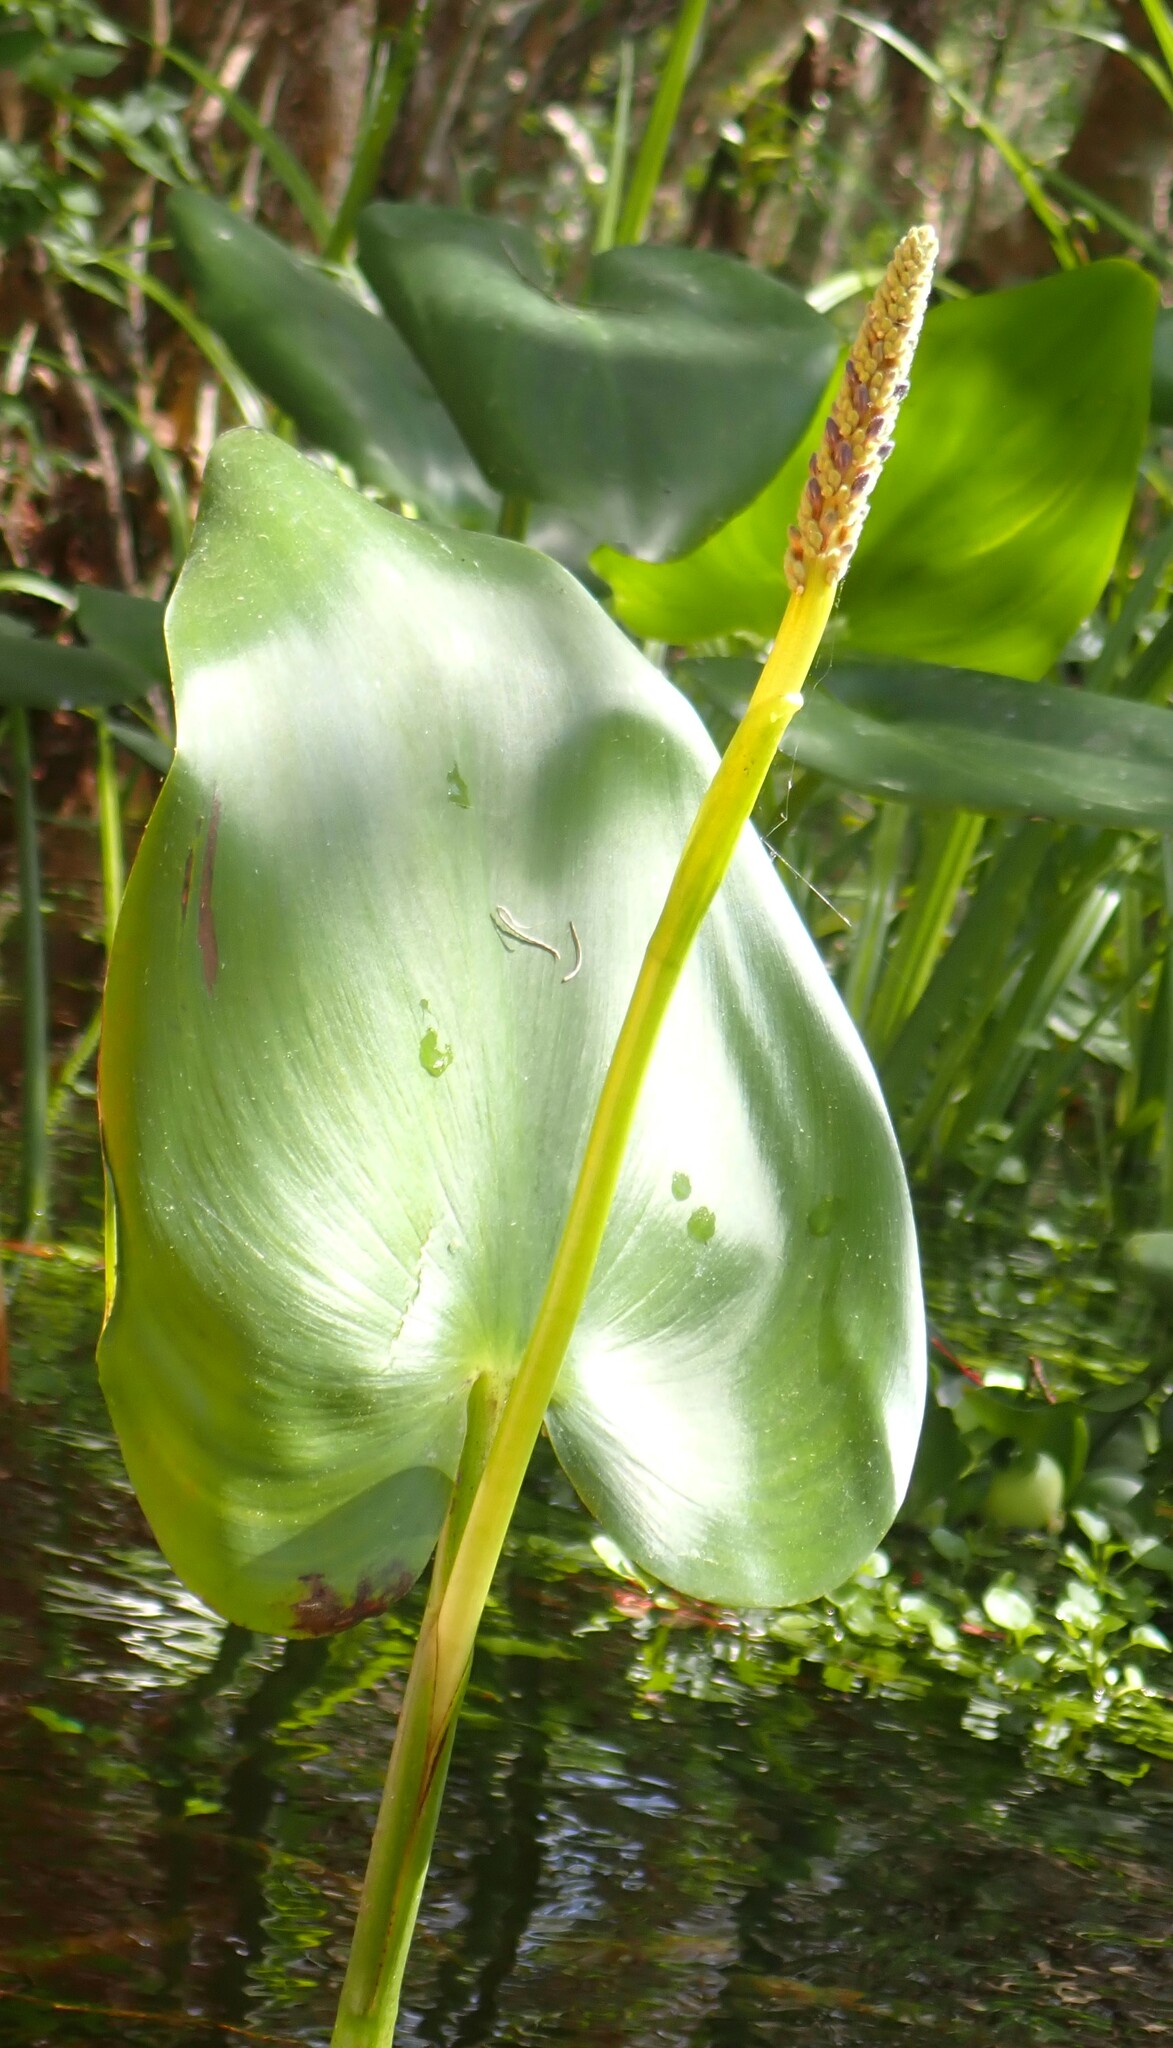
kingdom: Plantae
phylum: Tracheophyta
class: Liliopsida
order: Commelinales
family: Pontederiaceae
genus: Pontederia
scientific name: Pontederia cordata
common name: Pickerelweed
